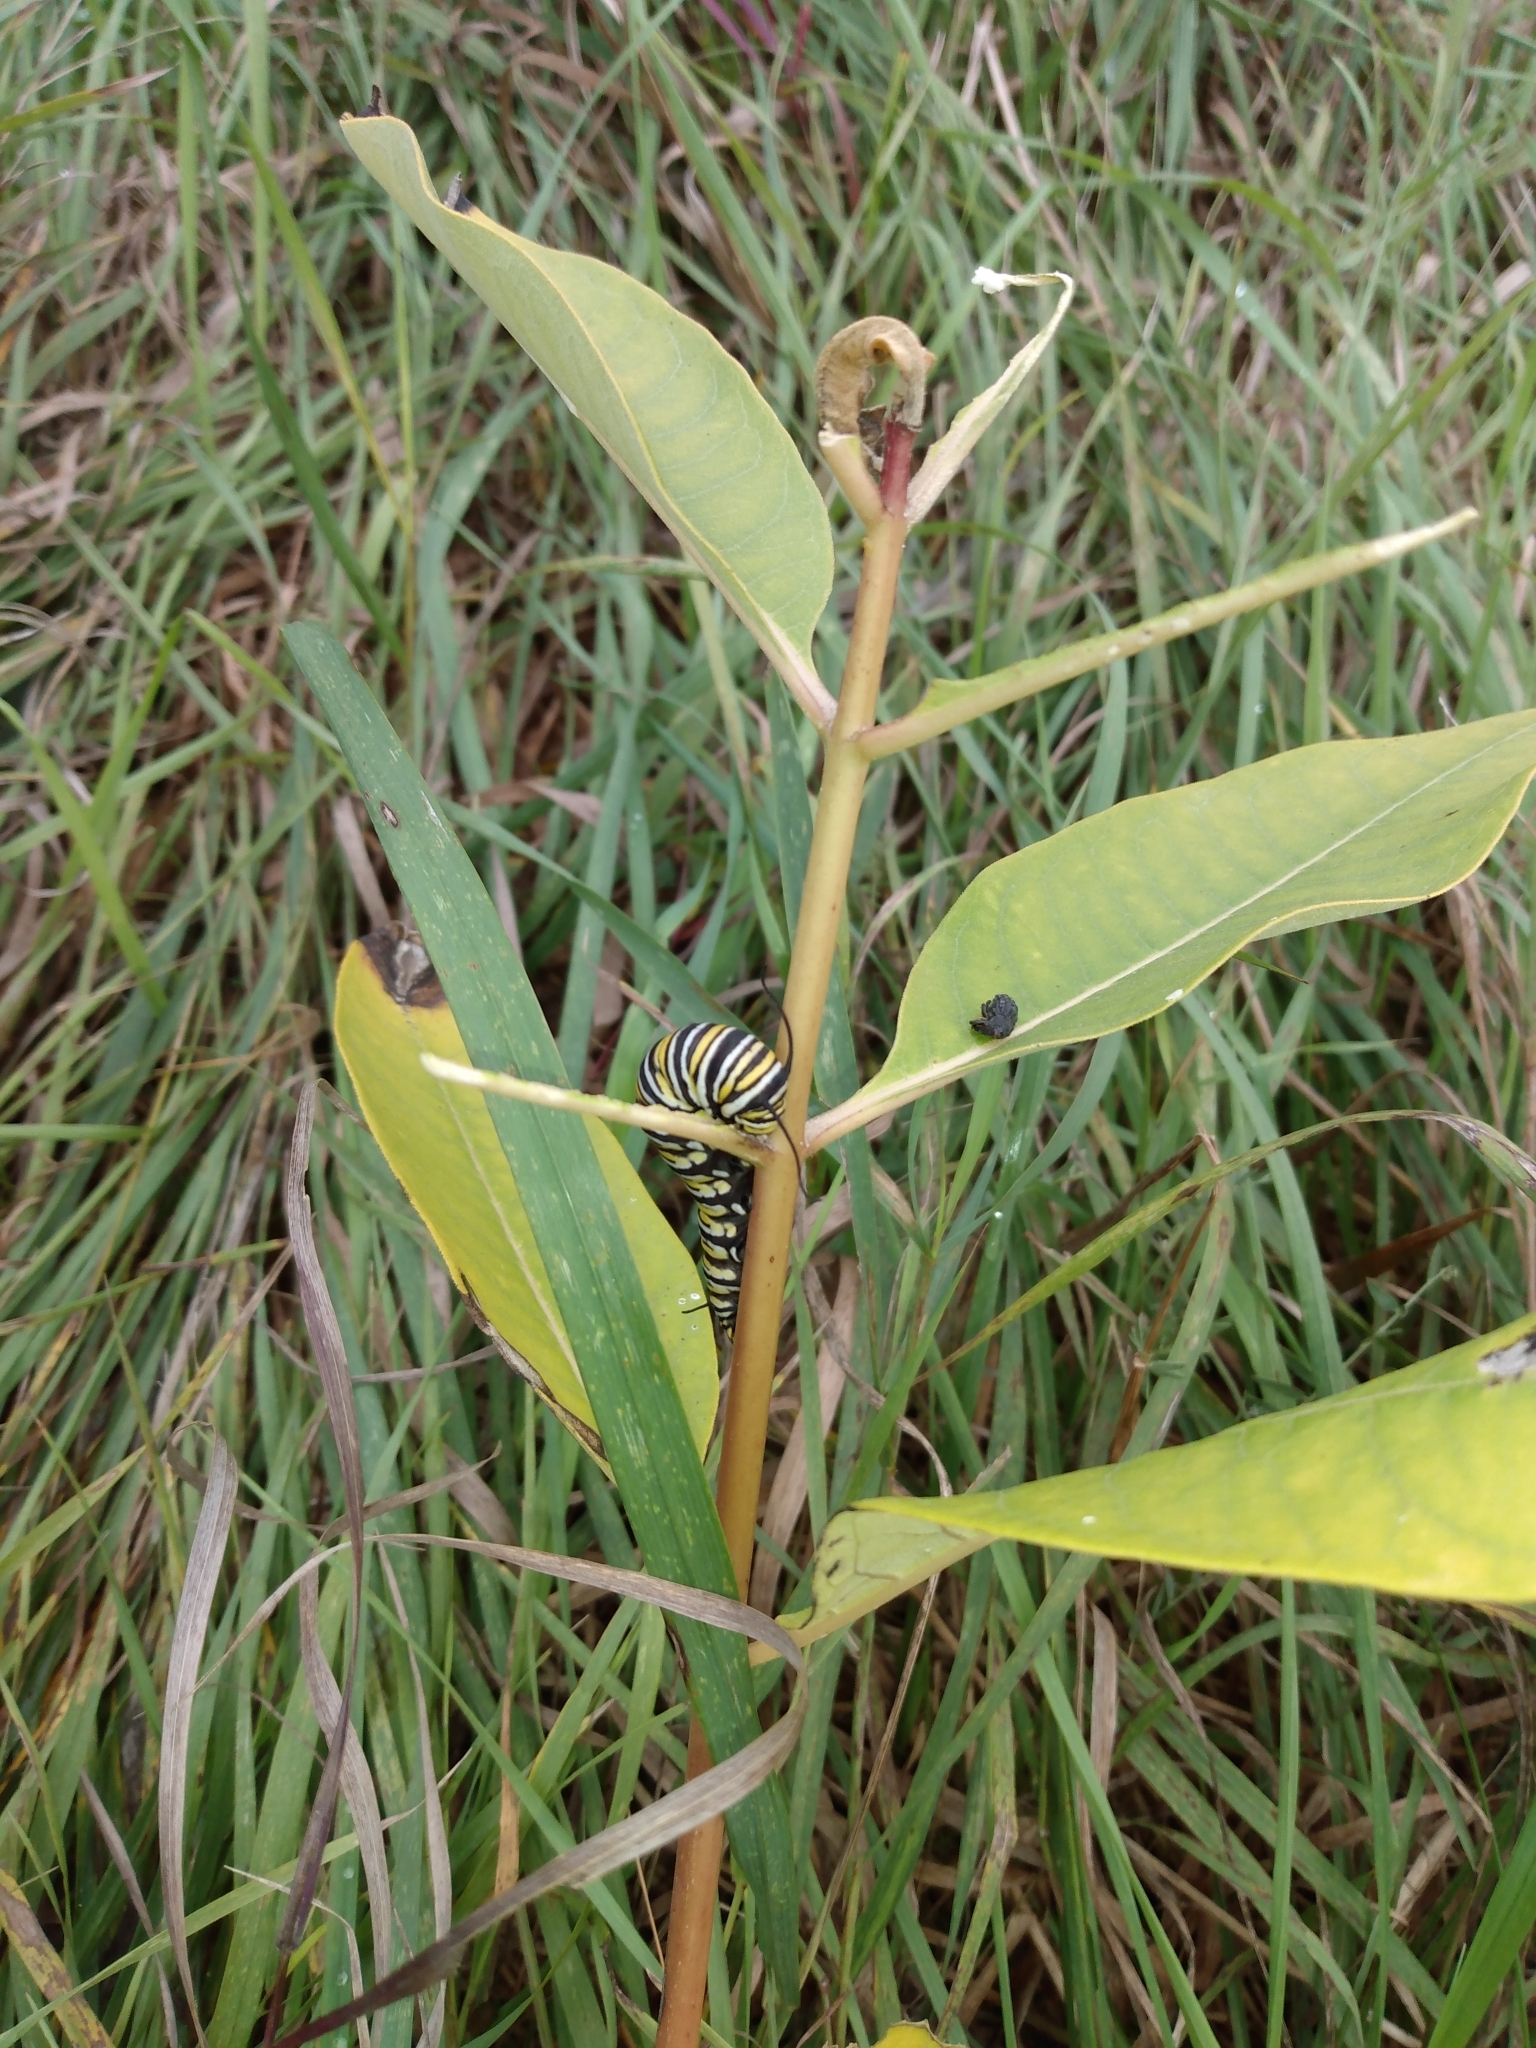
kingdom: Animalia
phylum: Arthropoda
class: Insecta
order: Lepidoptera
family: Nymphalidae
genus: Danaus
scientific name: Danaus plexippus
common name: Monarch
